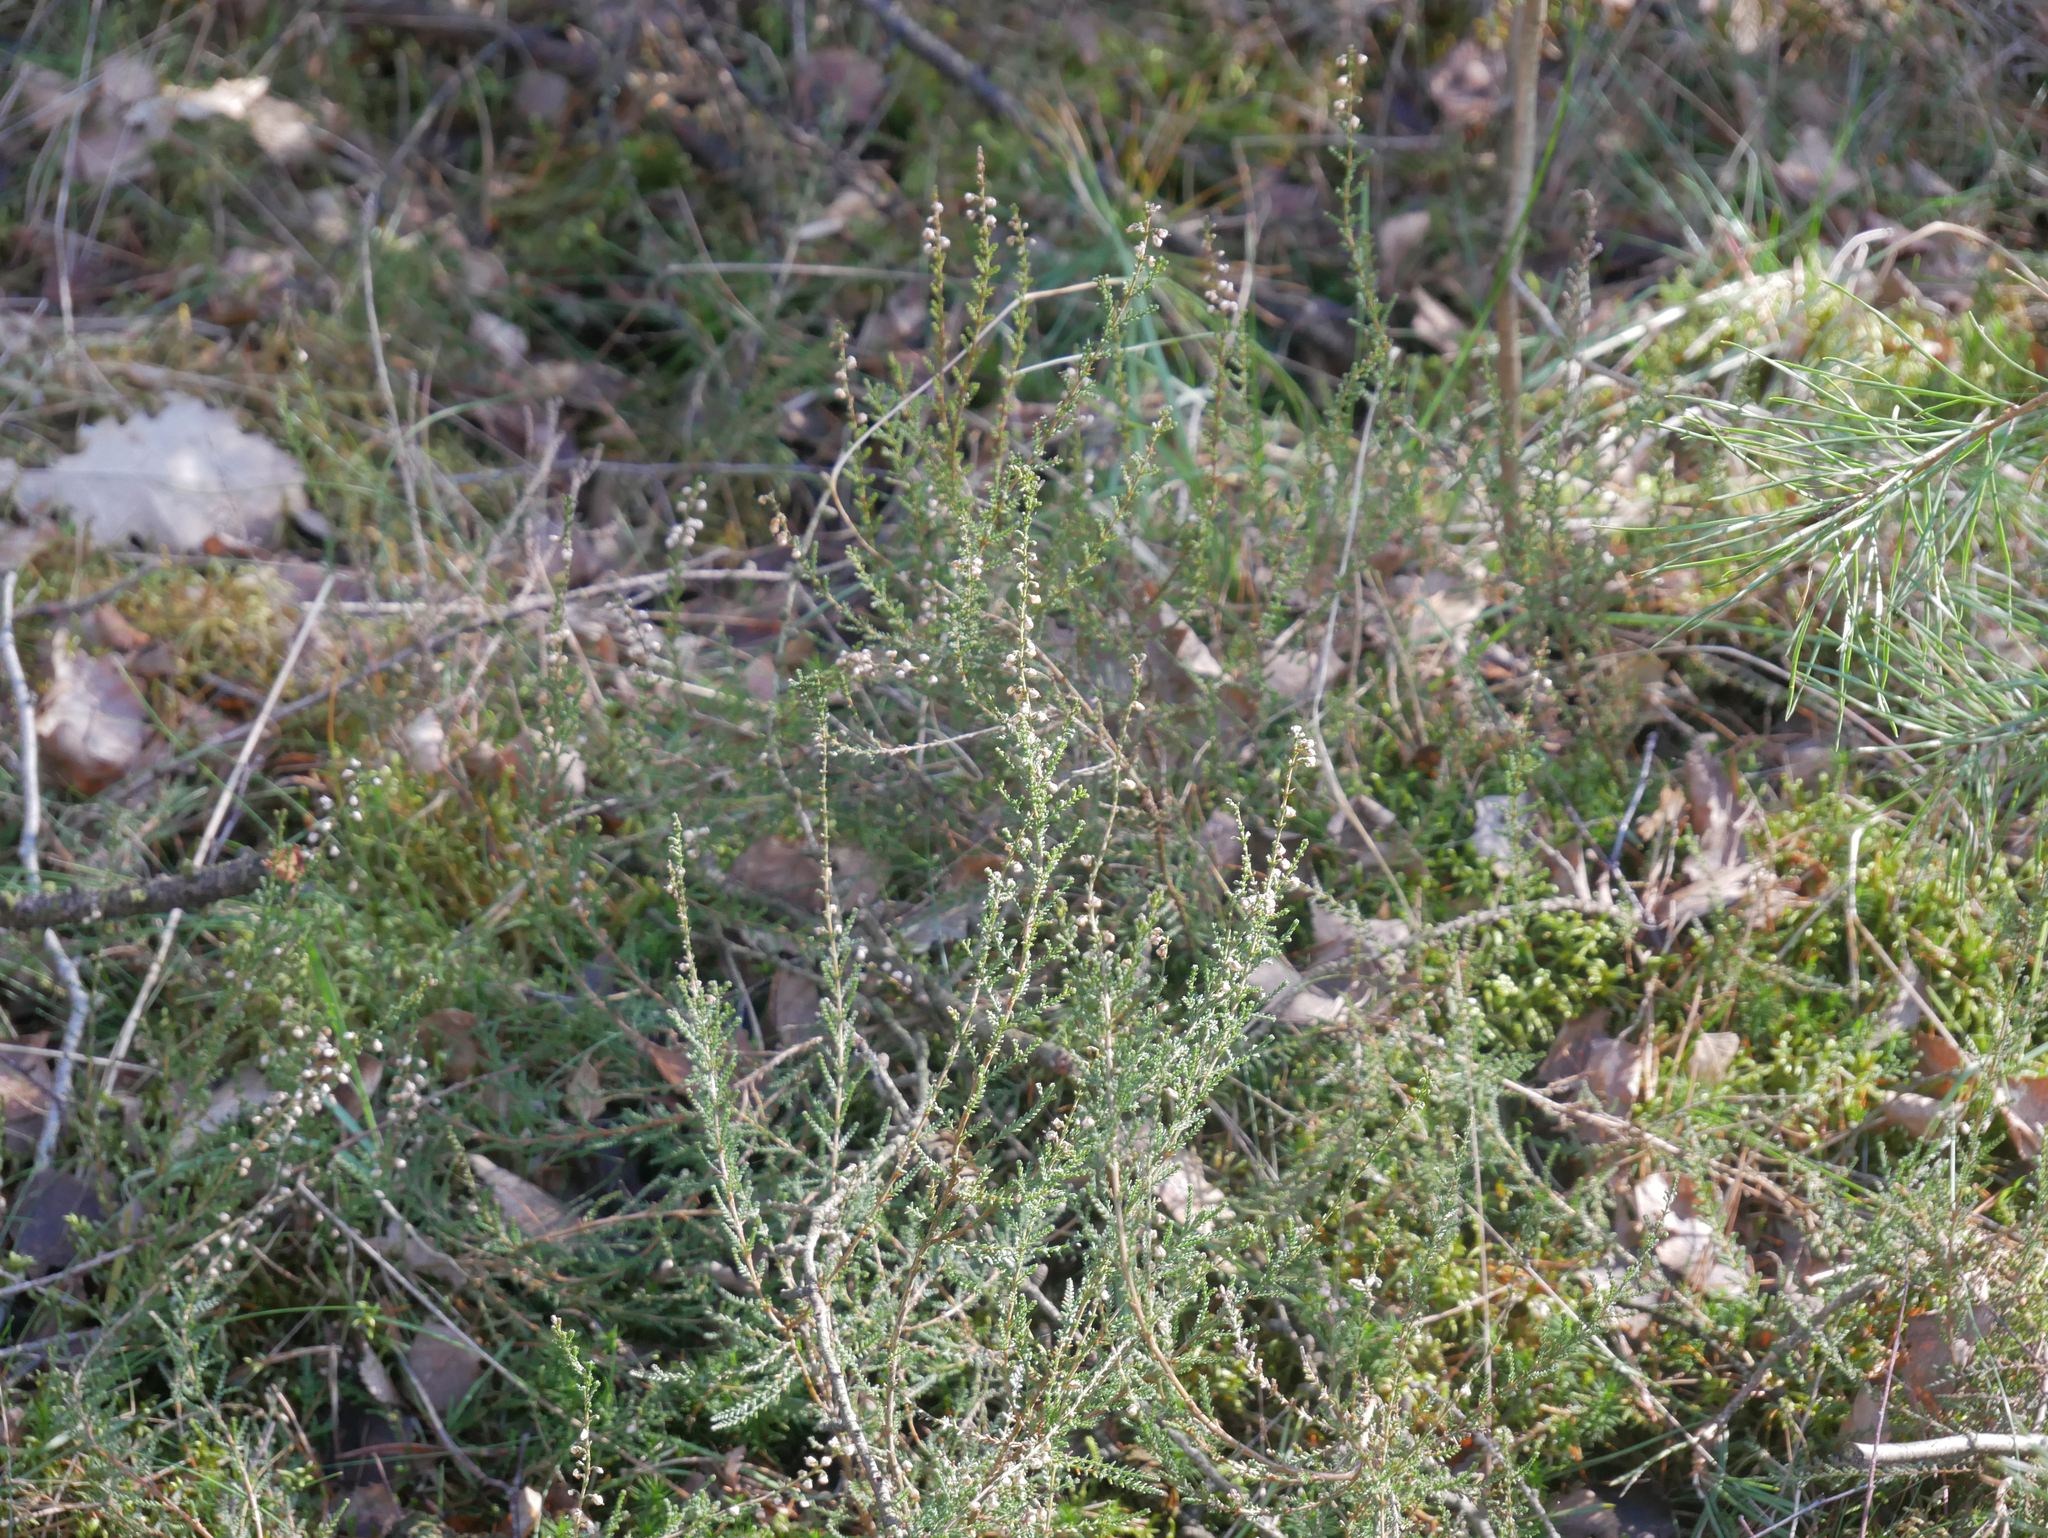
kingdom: Plantae
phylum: Tracheophyta
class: Magnoliopsida
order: Ericales
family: Ericaceae
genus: Calluna
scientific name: Calluna vulgaris
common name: Heather
